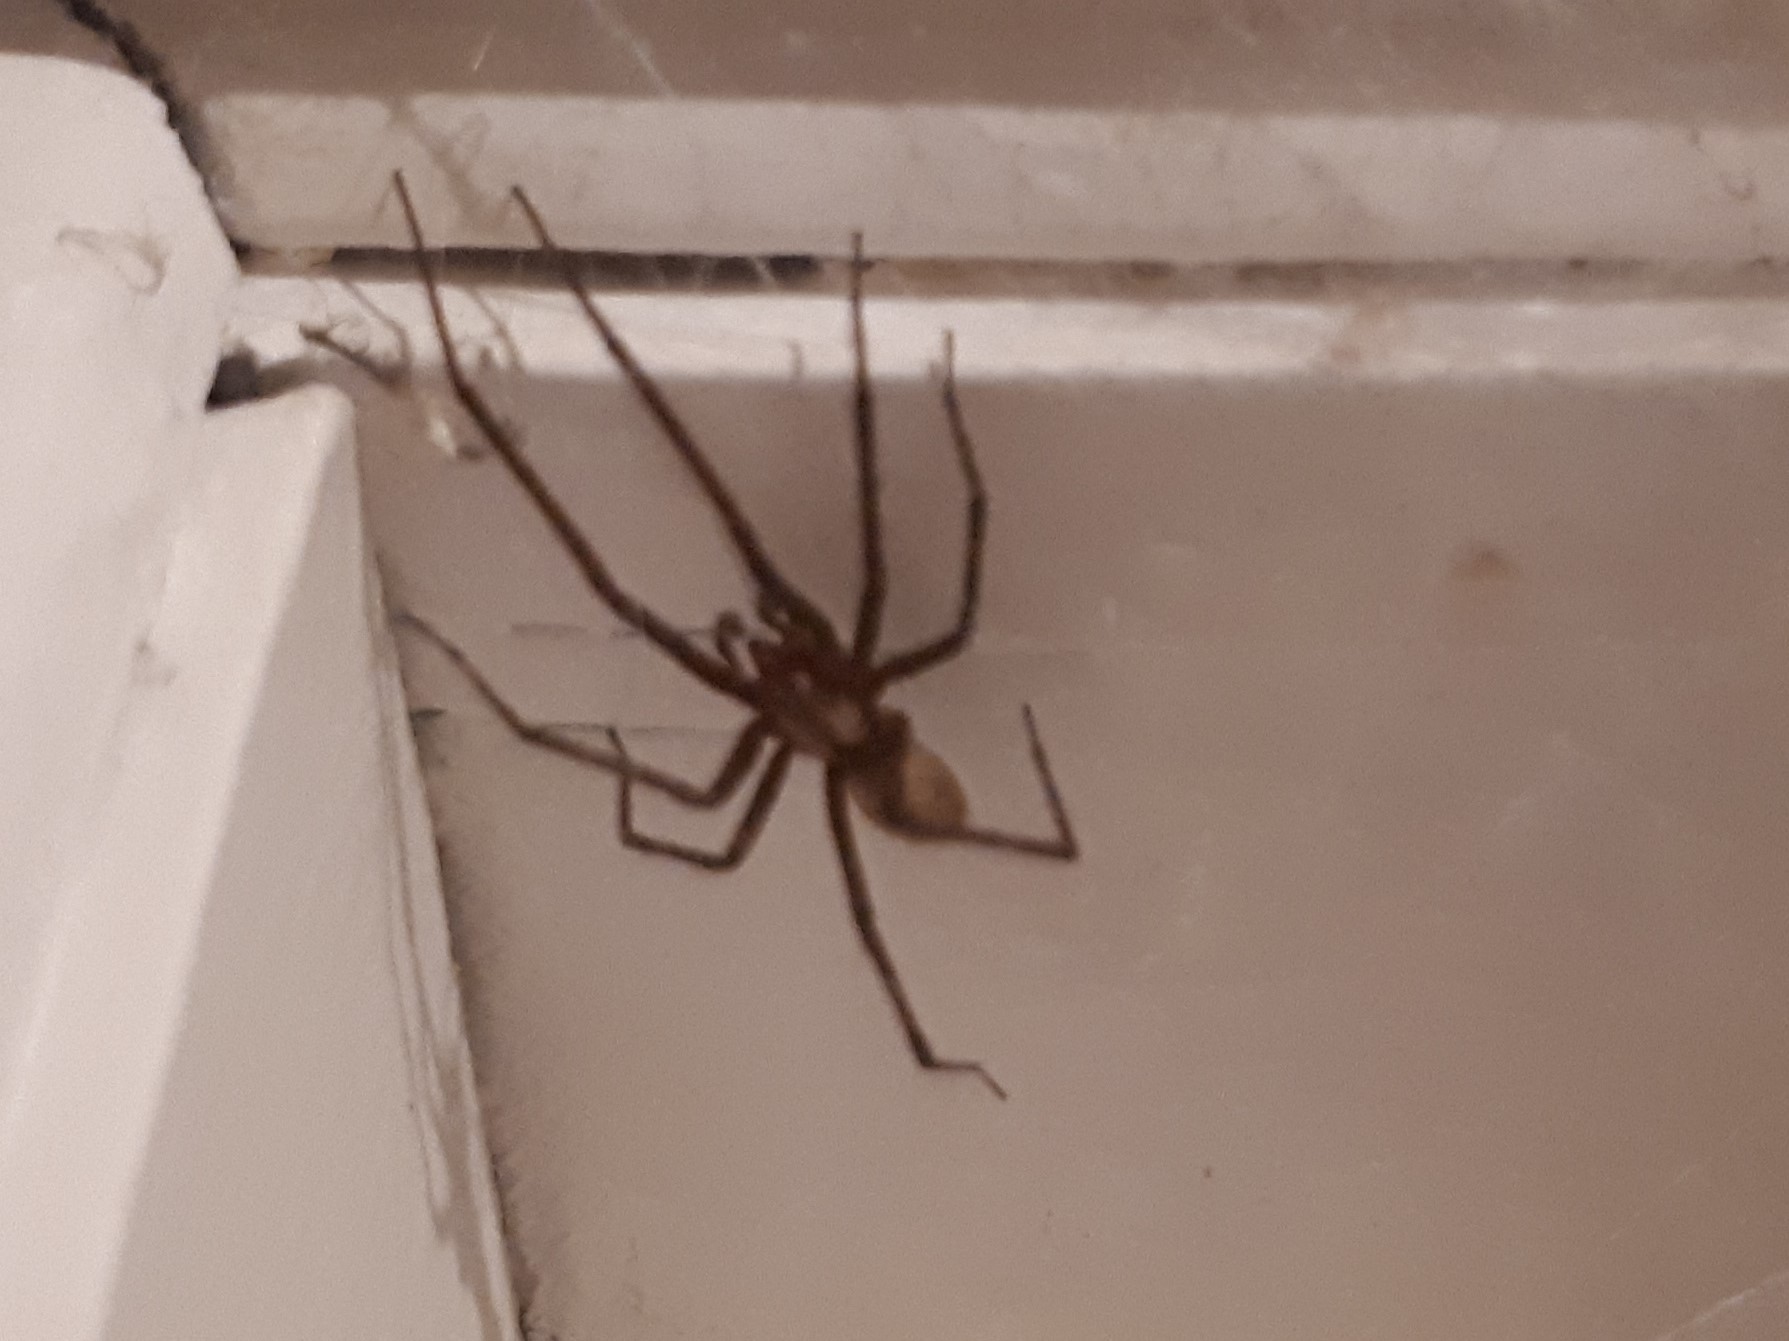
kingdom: Animalia
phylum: Arthropoda
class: Arachnida
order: Araneae
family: Desidae
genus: Cambridgea
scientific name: Cambridgea foliata
